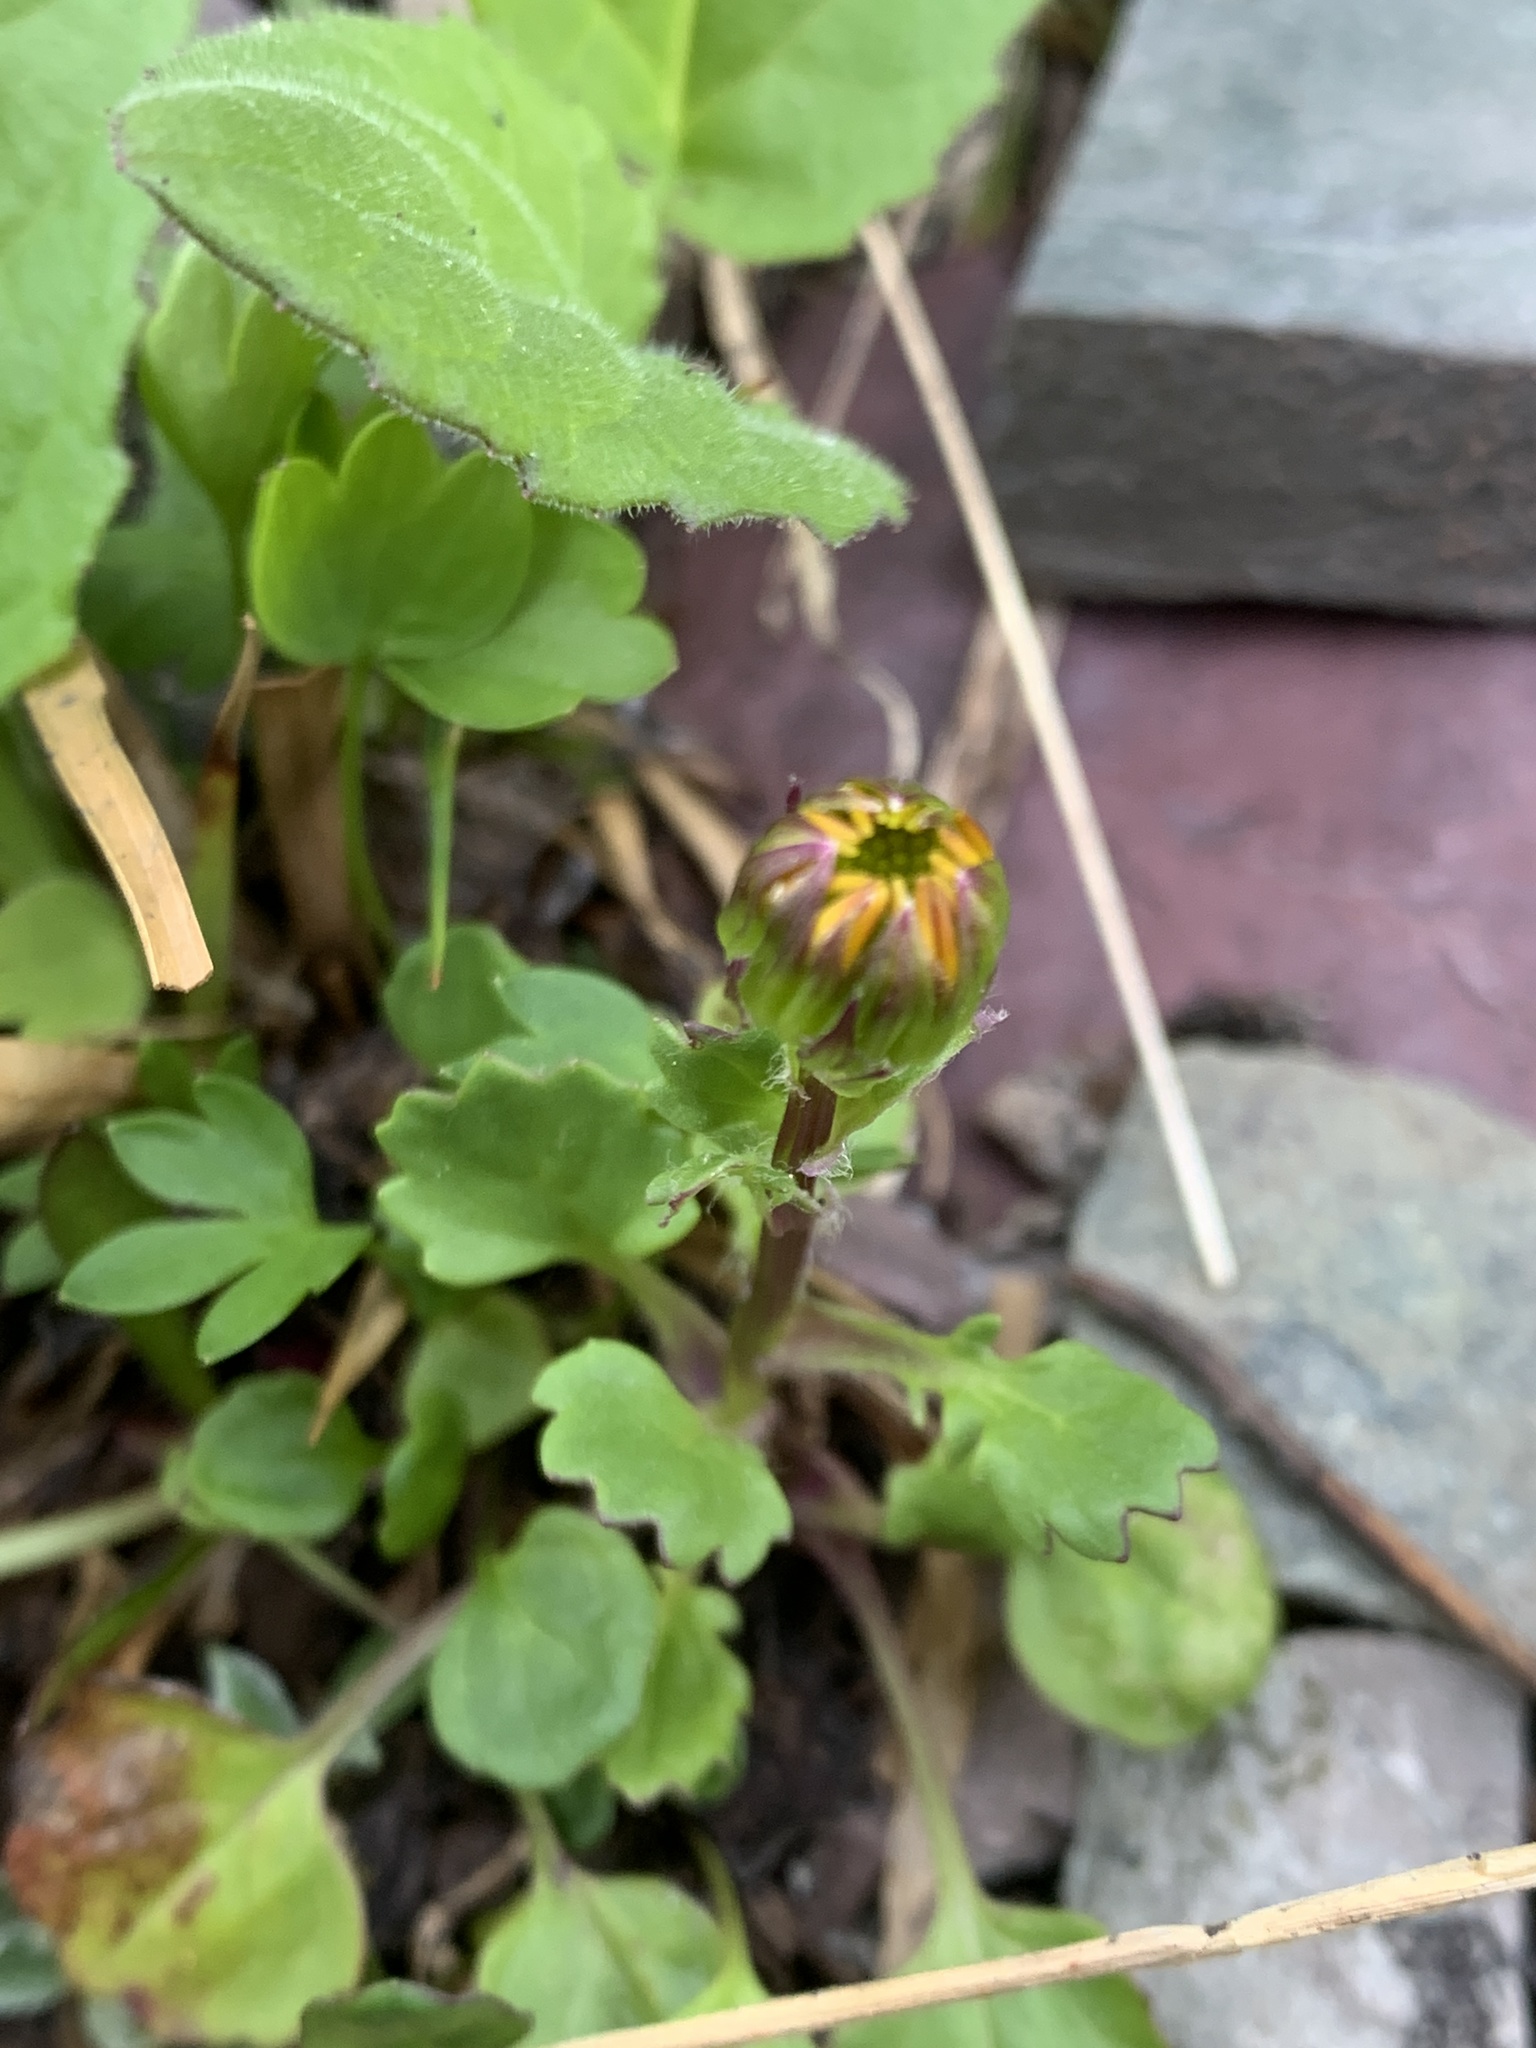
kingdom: Plantae
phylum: Tracheophyta
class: Magnoliopsida
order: Asterales
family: Asteraceae
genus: Packera
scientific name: Packera contermina
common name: High alpine butterweed
